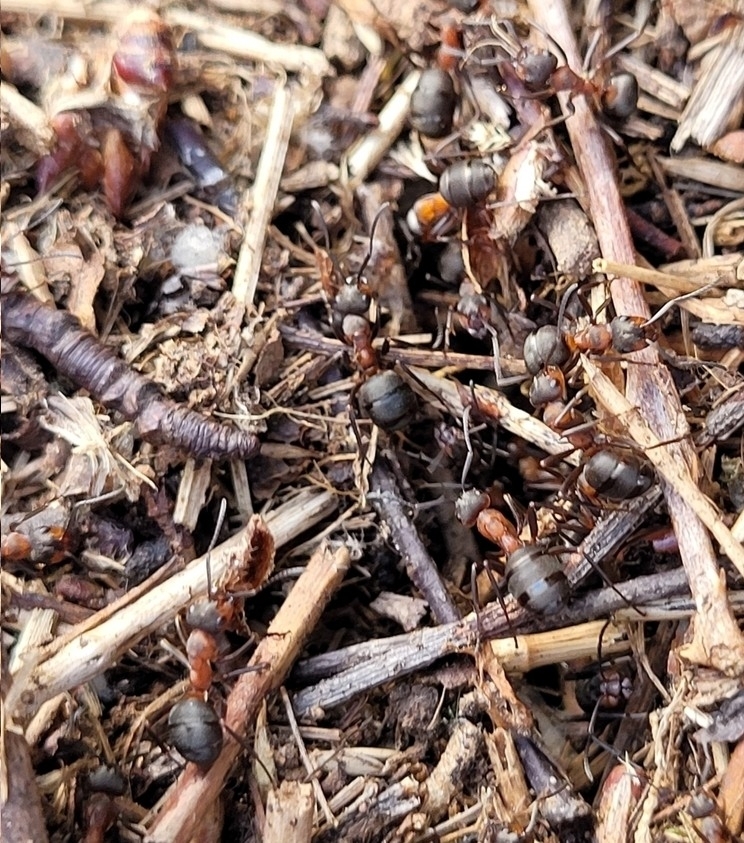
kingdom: Animalia
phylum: Arthropoda
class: Insecta
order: Hymenoptera
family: Formicidae
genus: Formica
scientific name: Formica
